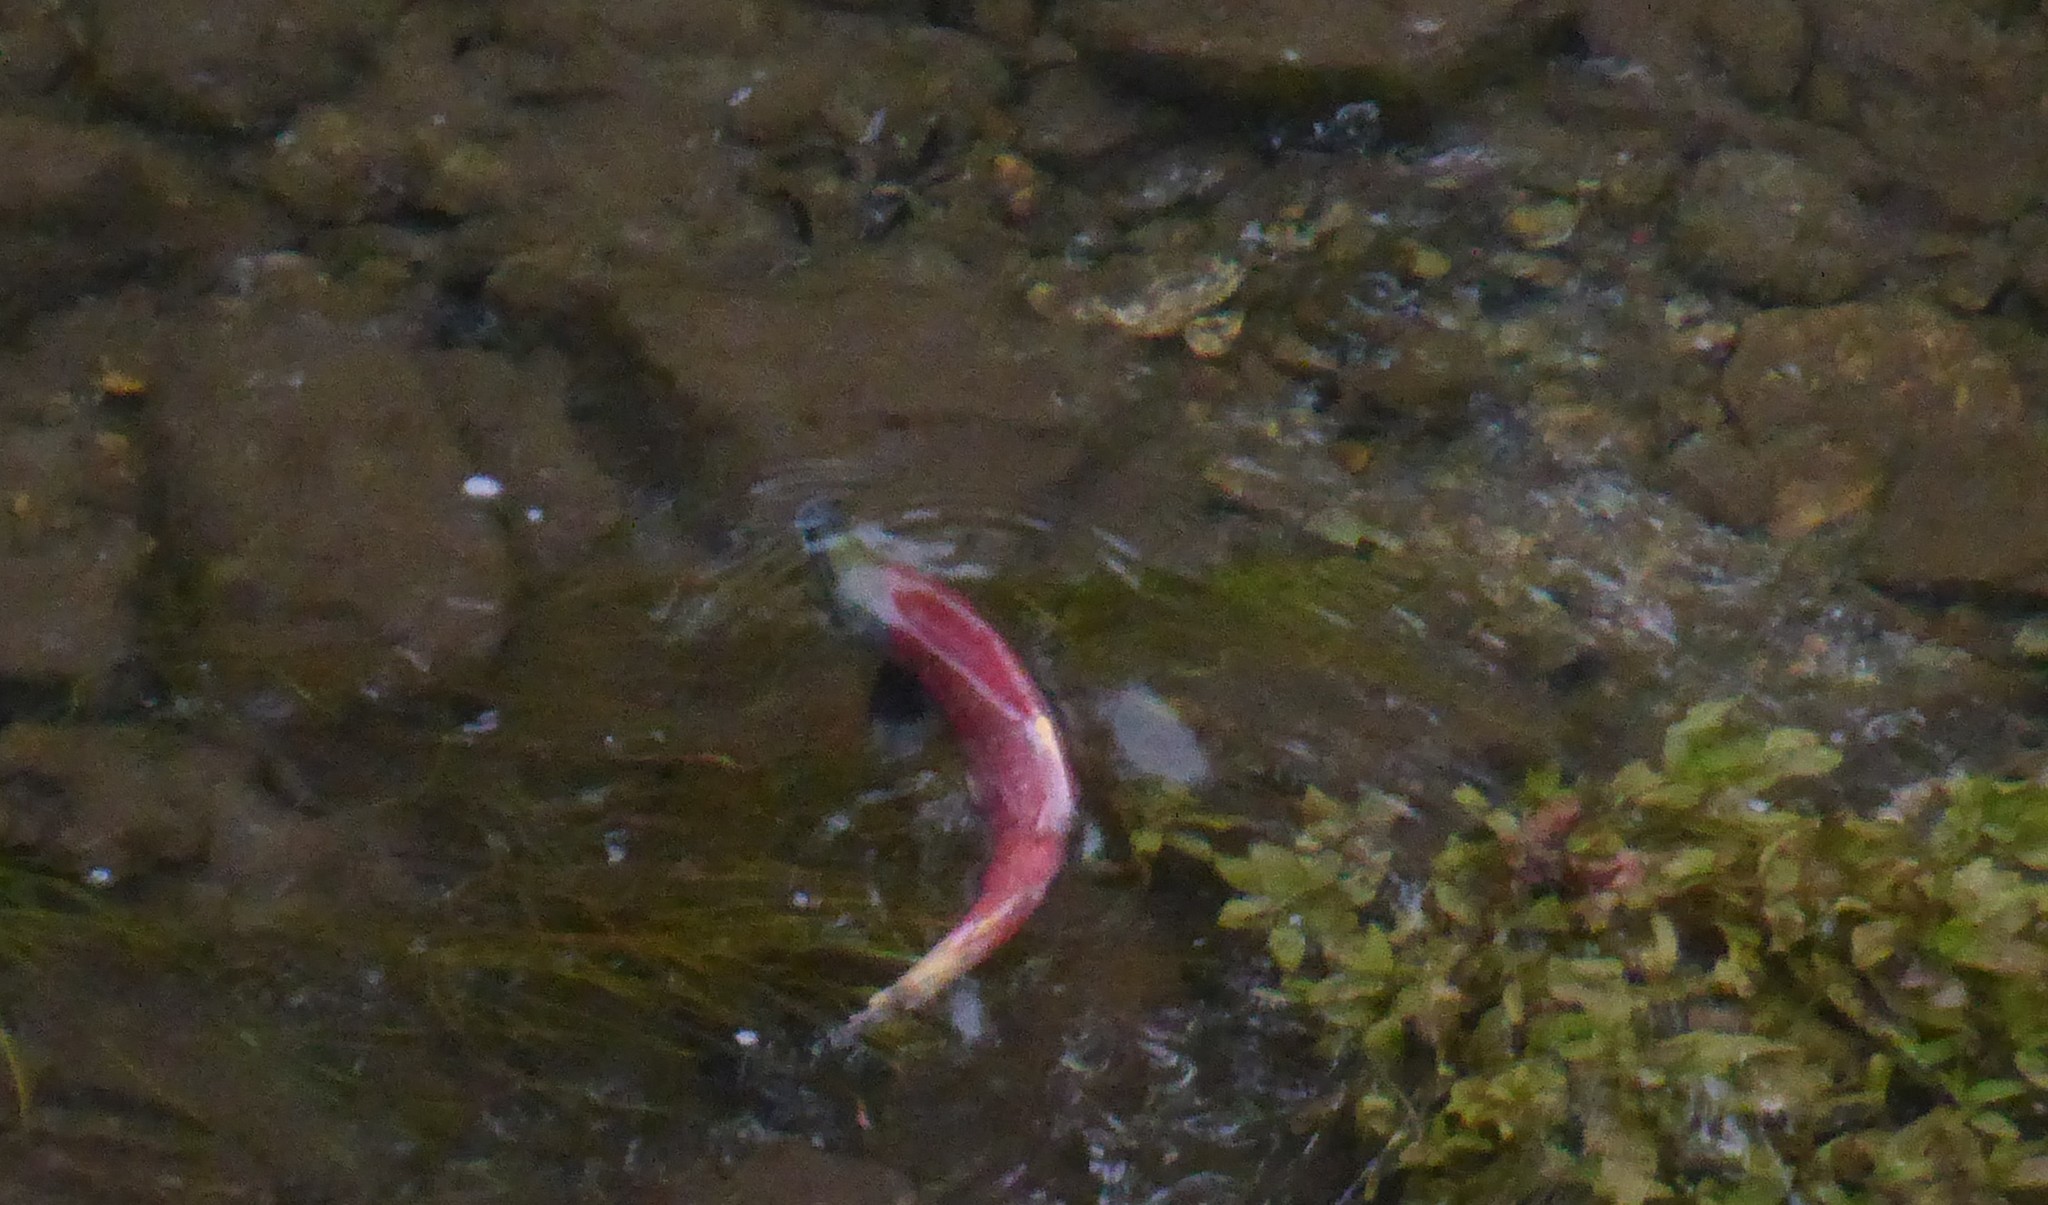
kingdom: Animalia
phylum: Chordata
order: Salmoniformes
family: Salmonidae
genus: Oncorhynchus
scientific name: Oncorhynchus nerka
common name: Sockeye salmon
